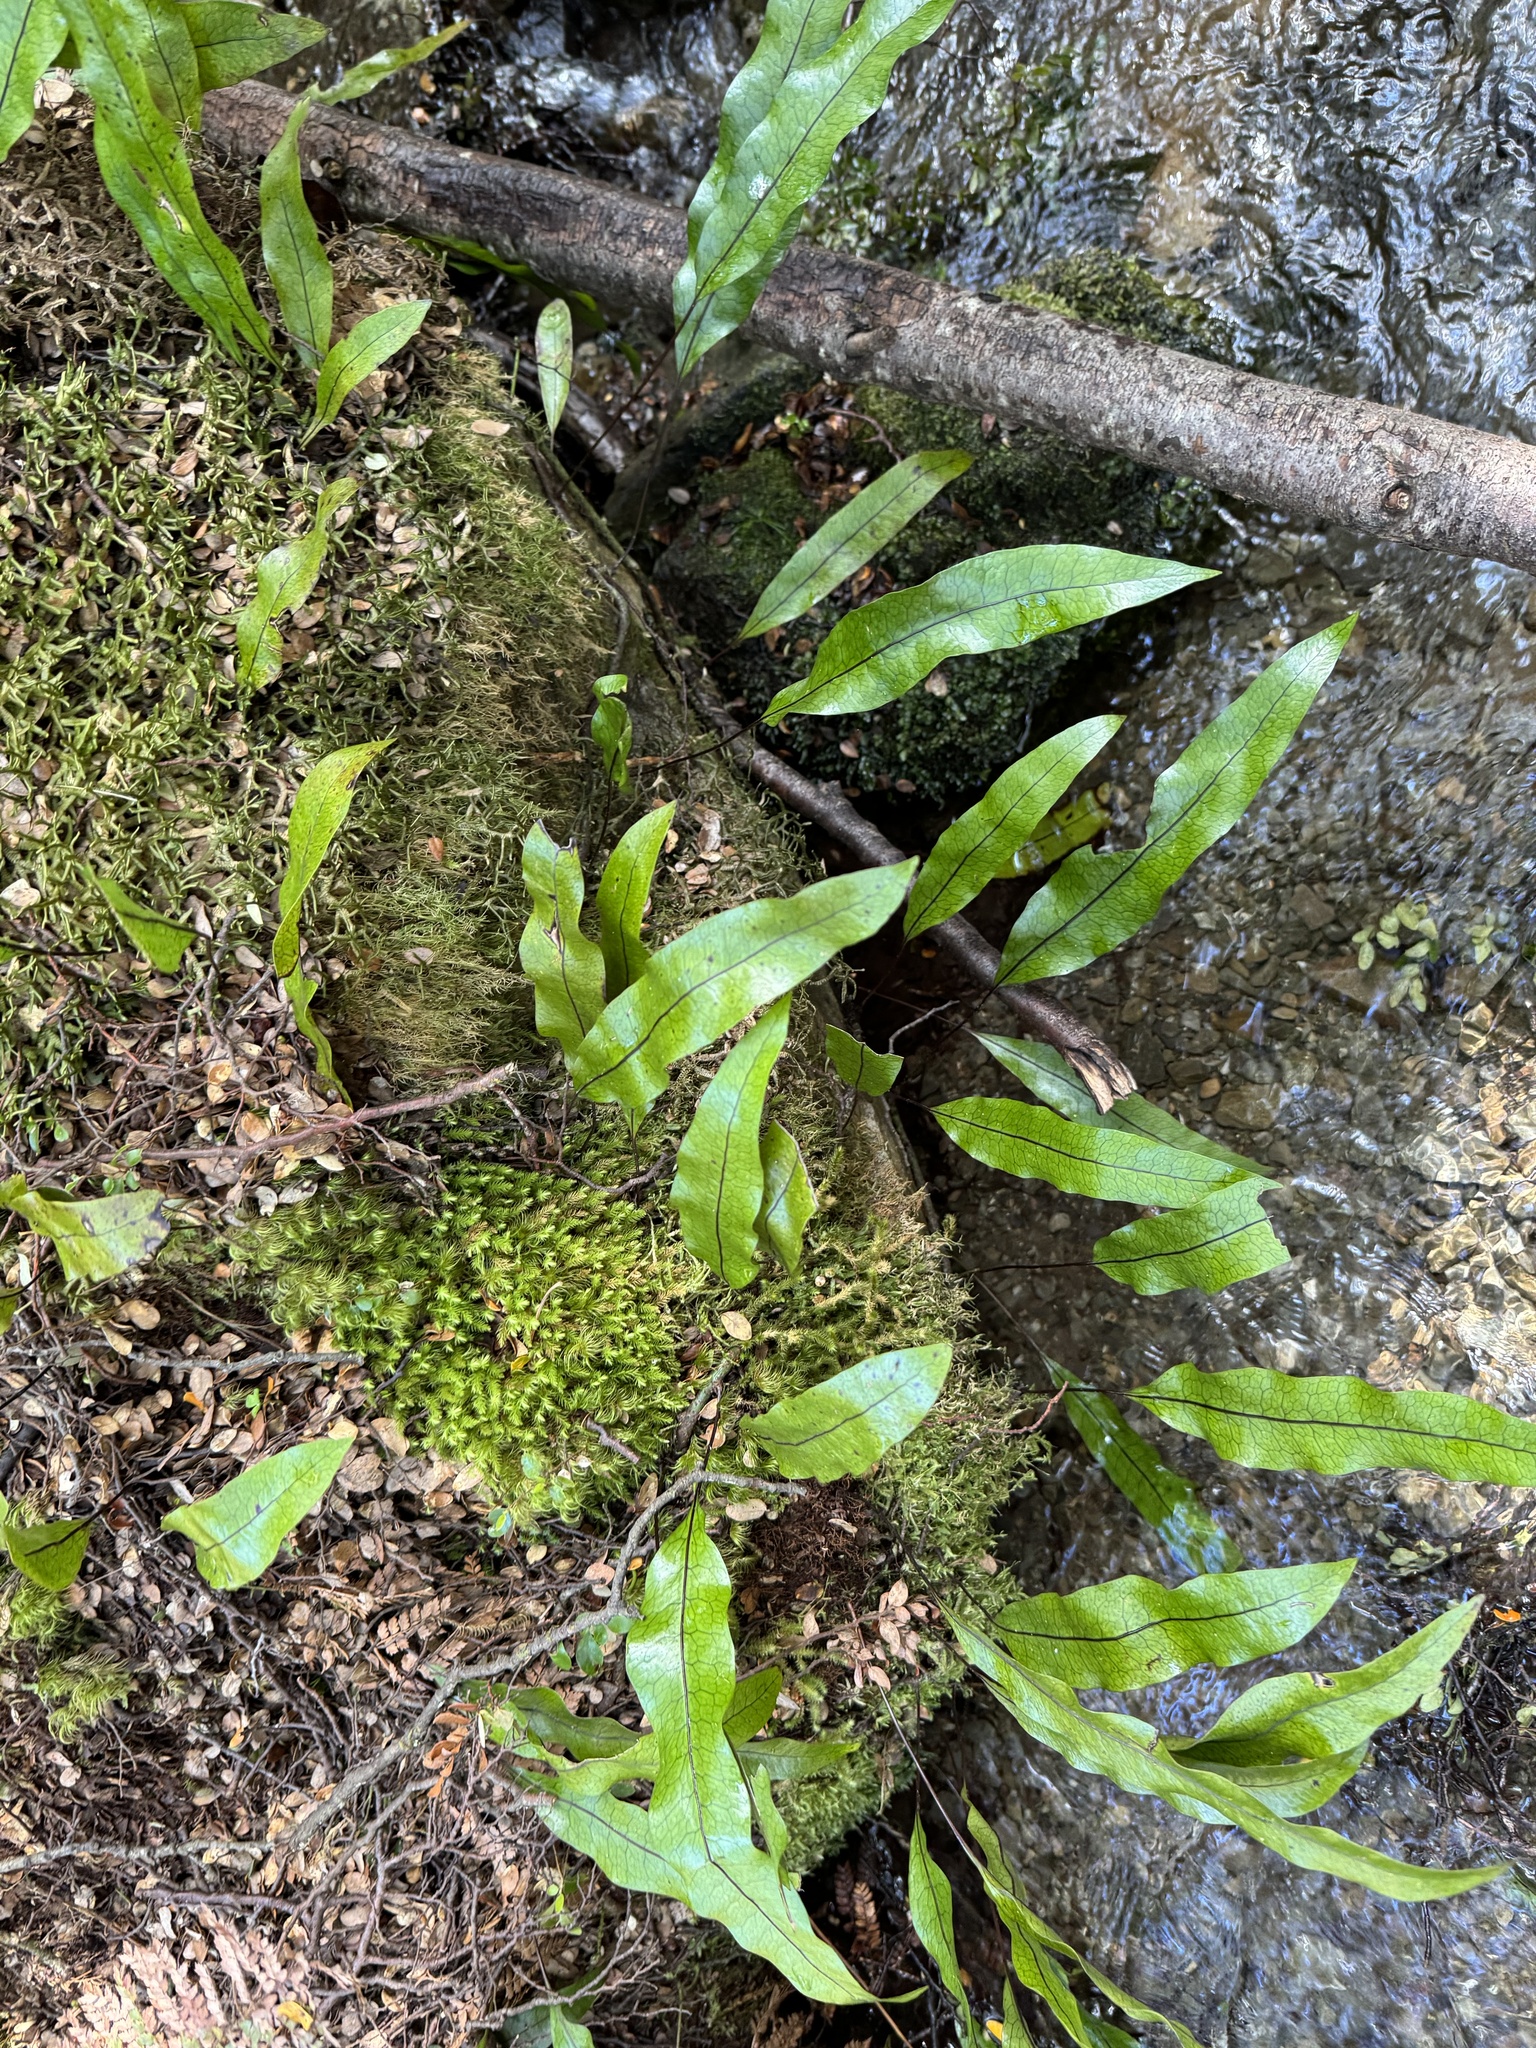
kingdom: Plantae
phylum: Tracheophyta
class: Polypodiopsida
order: Polypodiales
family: Polypodiaceae
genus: Lecanopteris
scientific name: Lecanopteris pustulata
